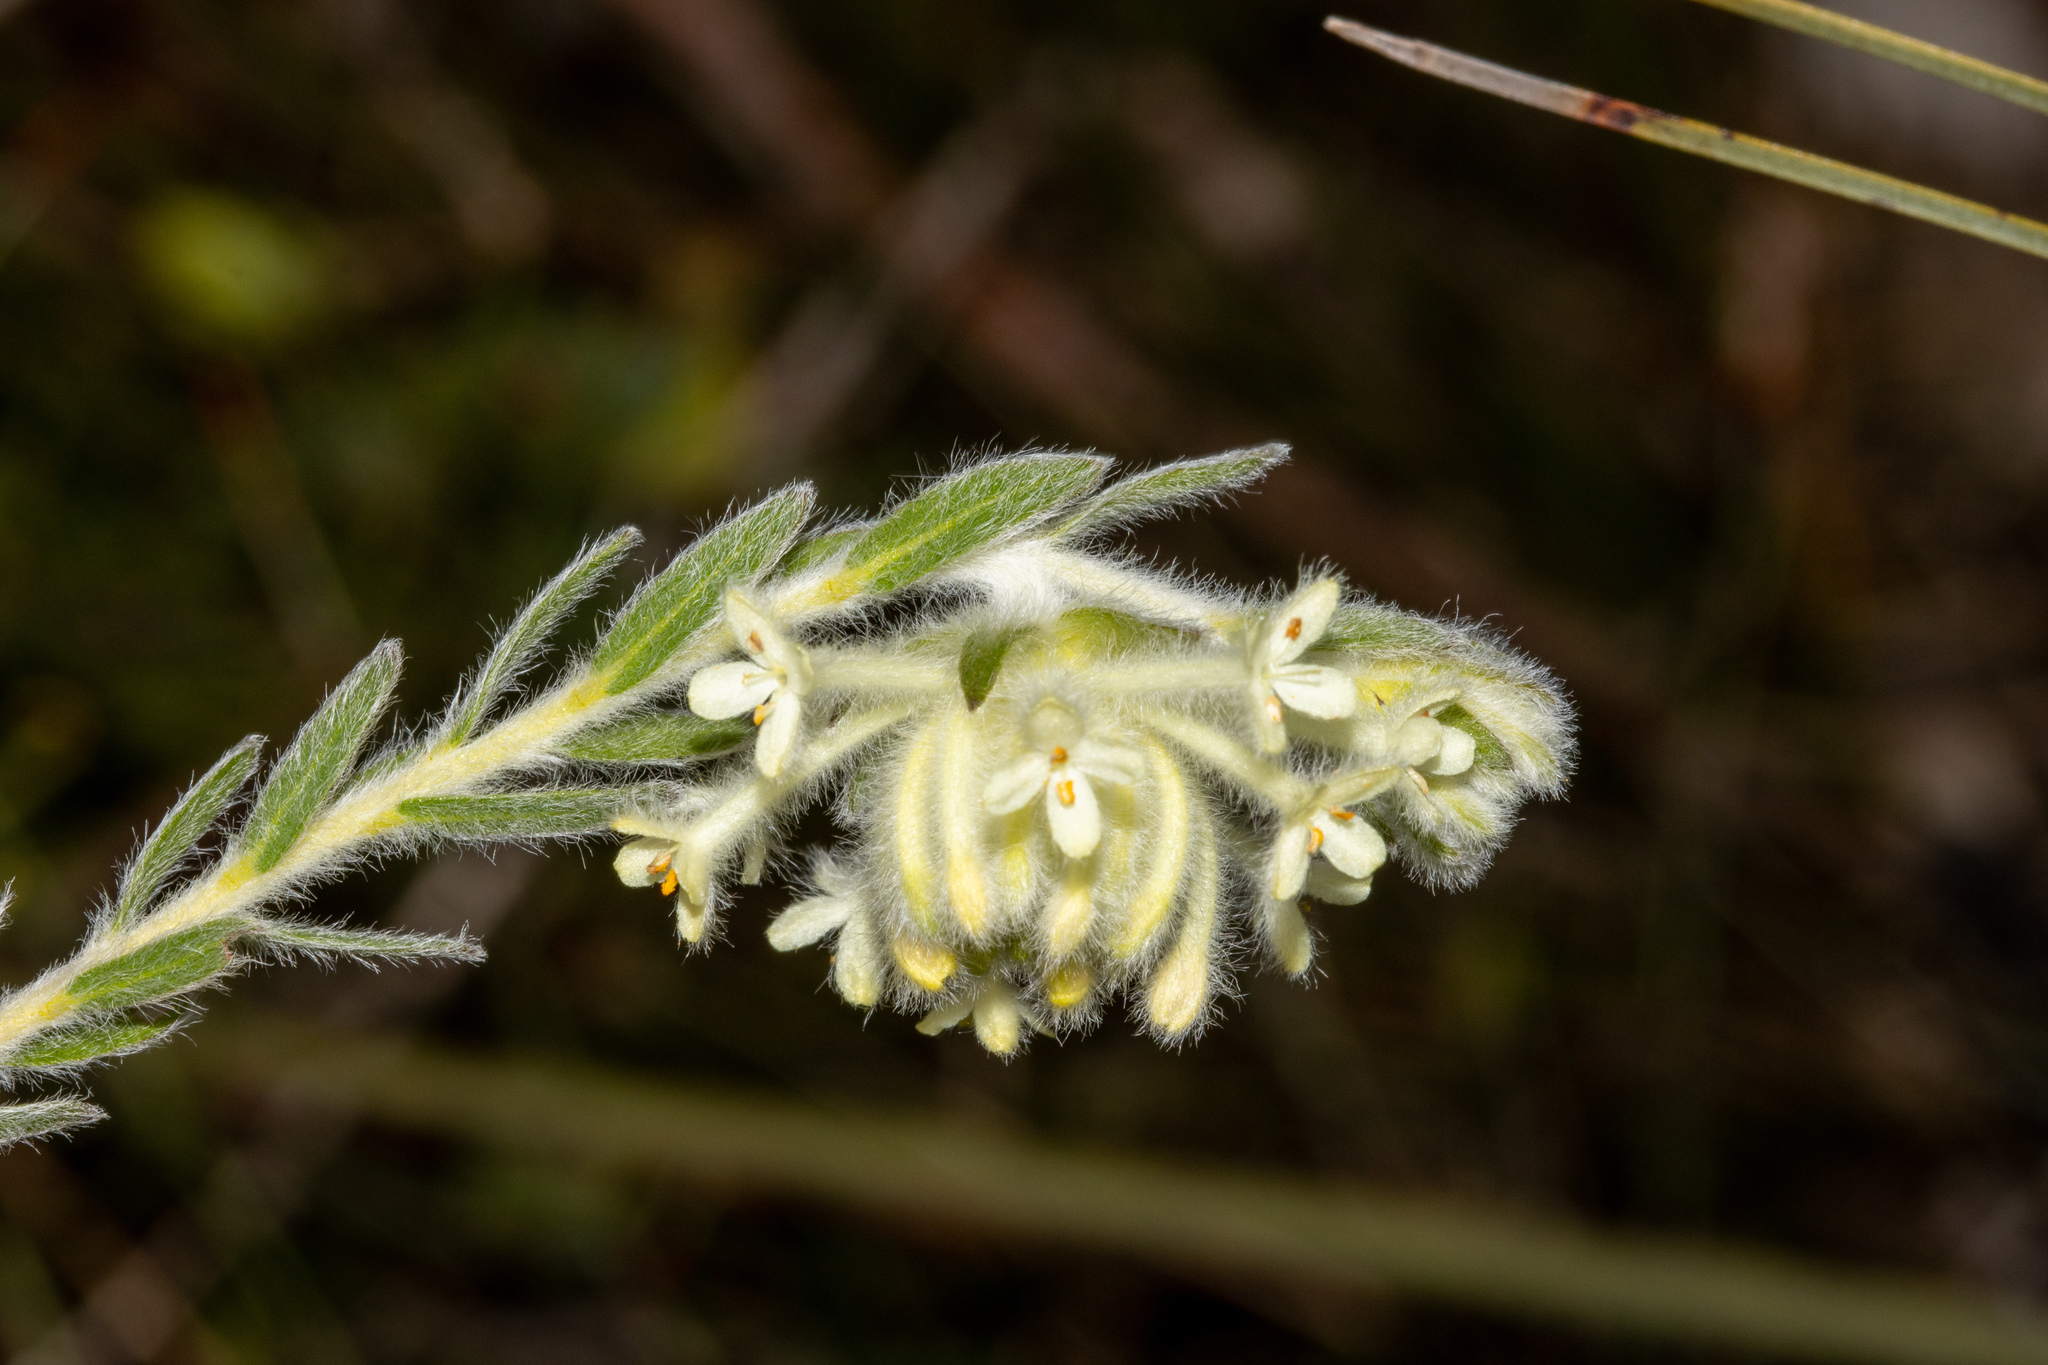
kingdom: Plantae
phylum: Tracheophyta
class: Magnoliopsida
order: Malvales
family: Thymelaeaceae
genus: Pimelea
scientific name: Pimelea octophylla
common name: Woolly riceflower
